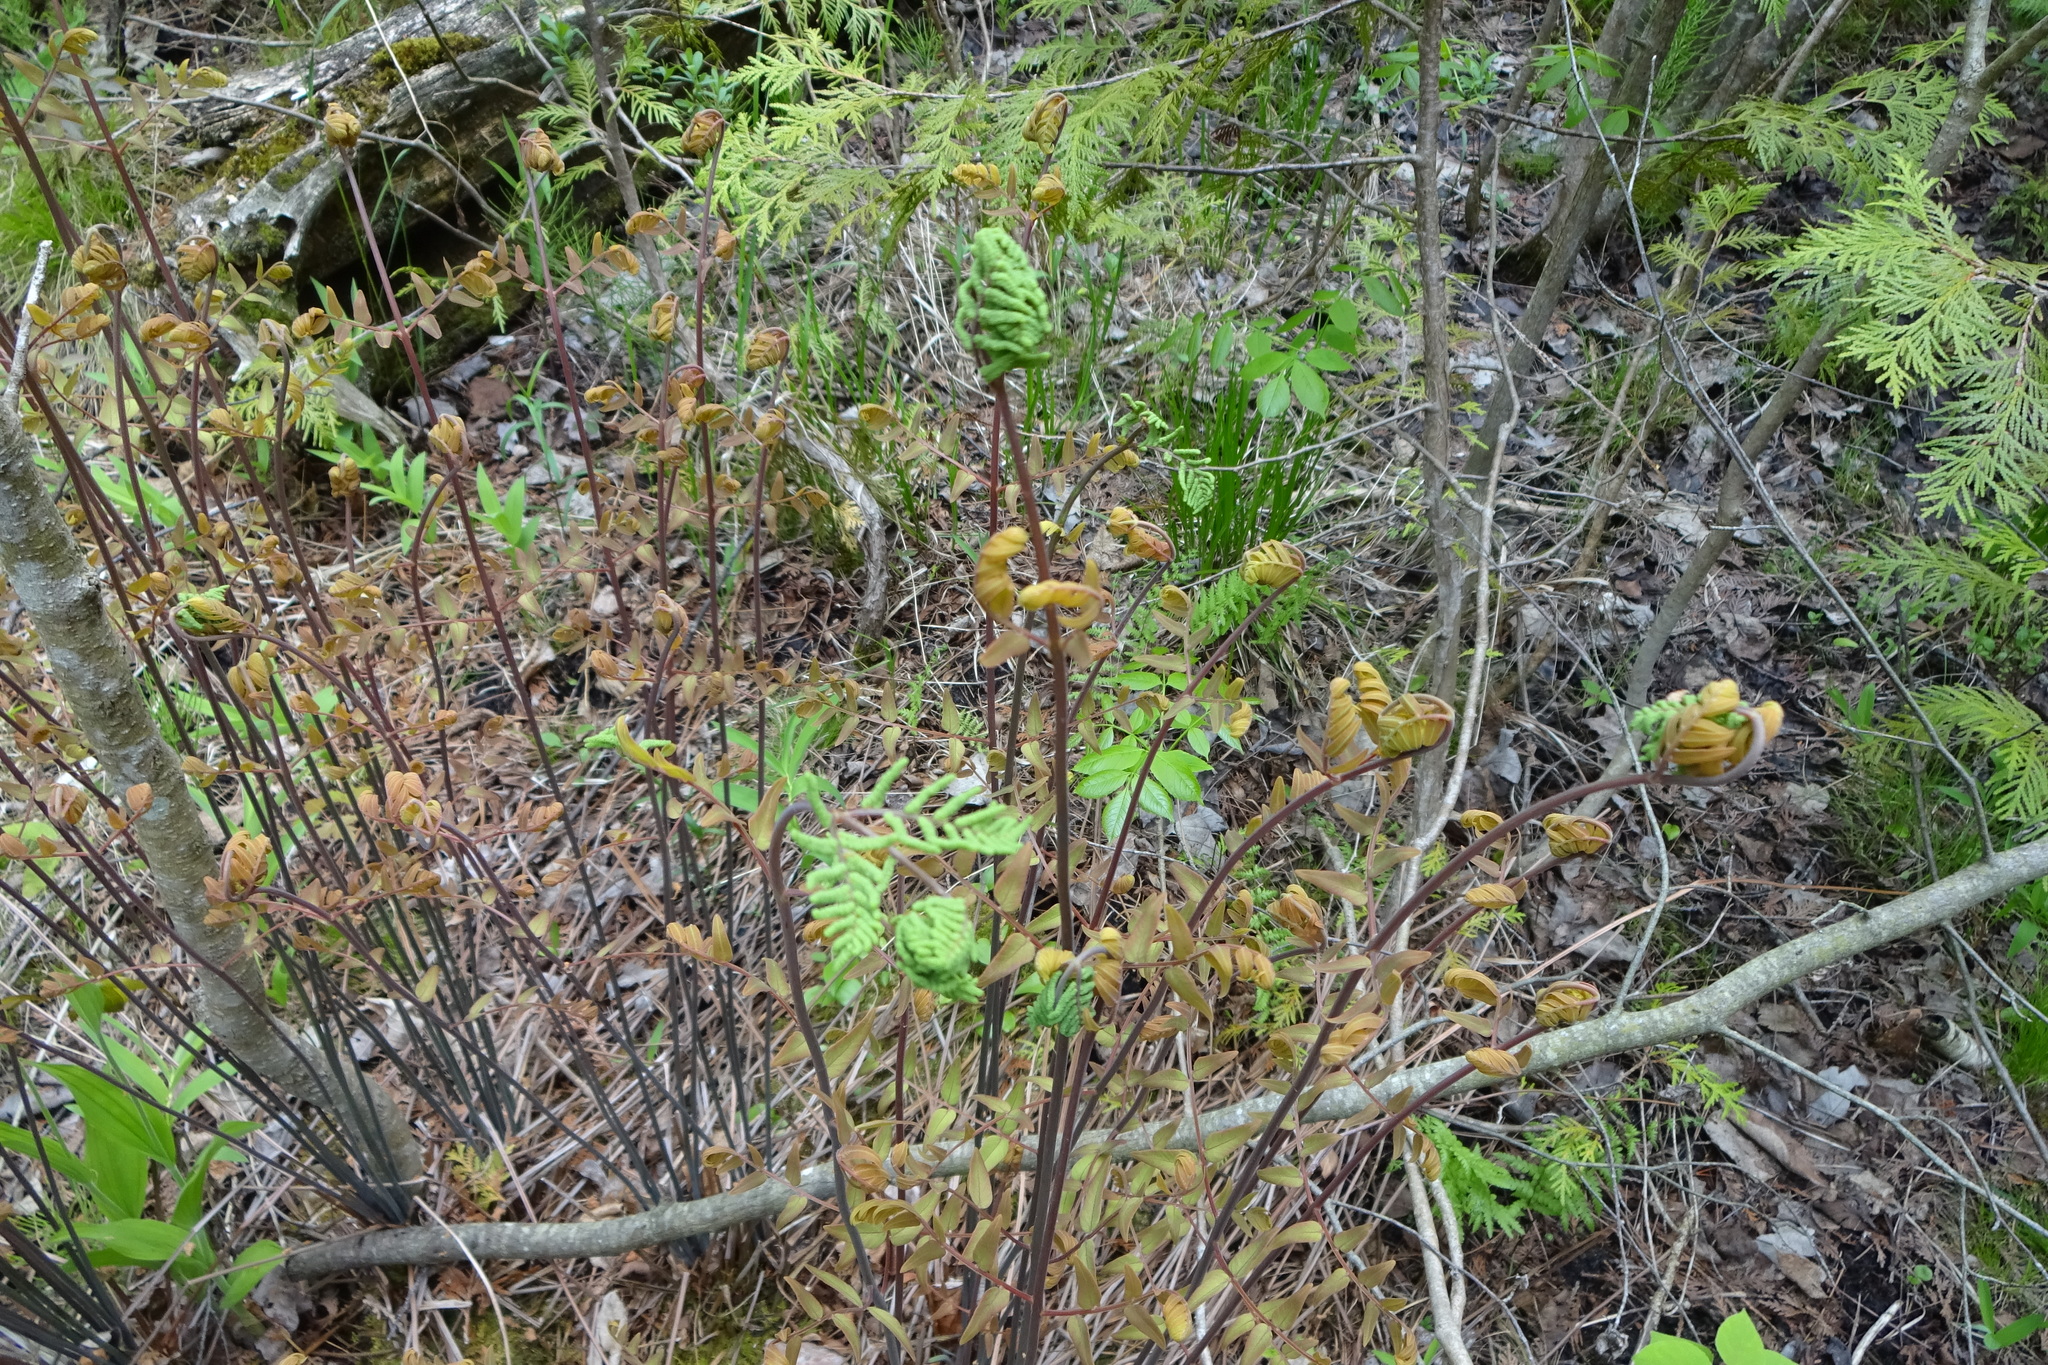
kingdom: Plantae
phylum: Tracheophyta
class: Polypodiopsida
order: Osmundales
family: Osmundaceae
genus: Osmunda
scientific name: Osmunda spectabilis
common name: American royal fern
